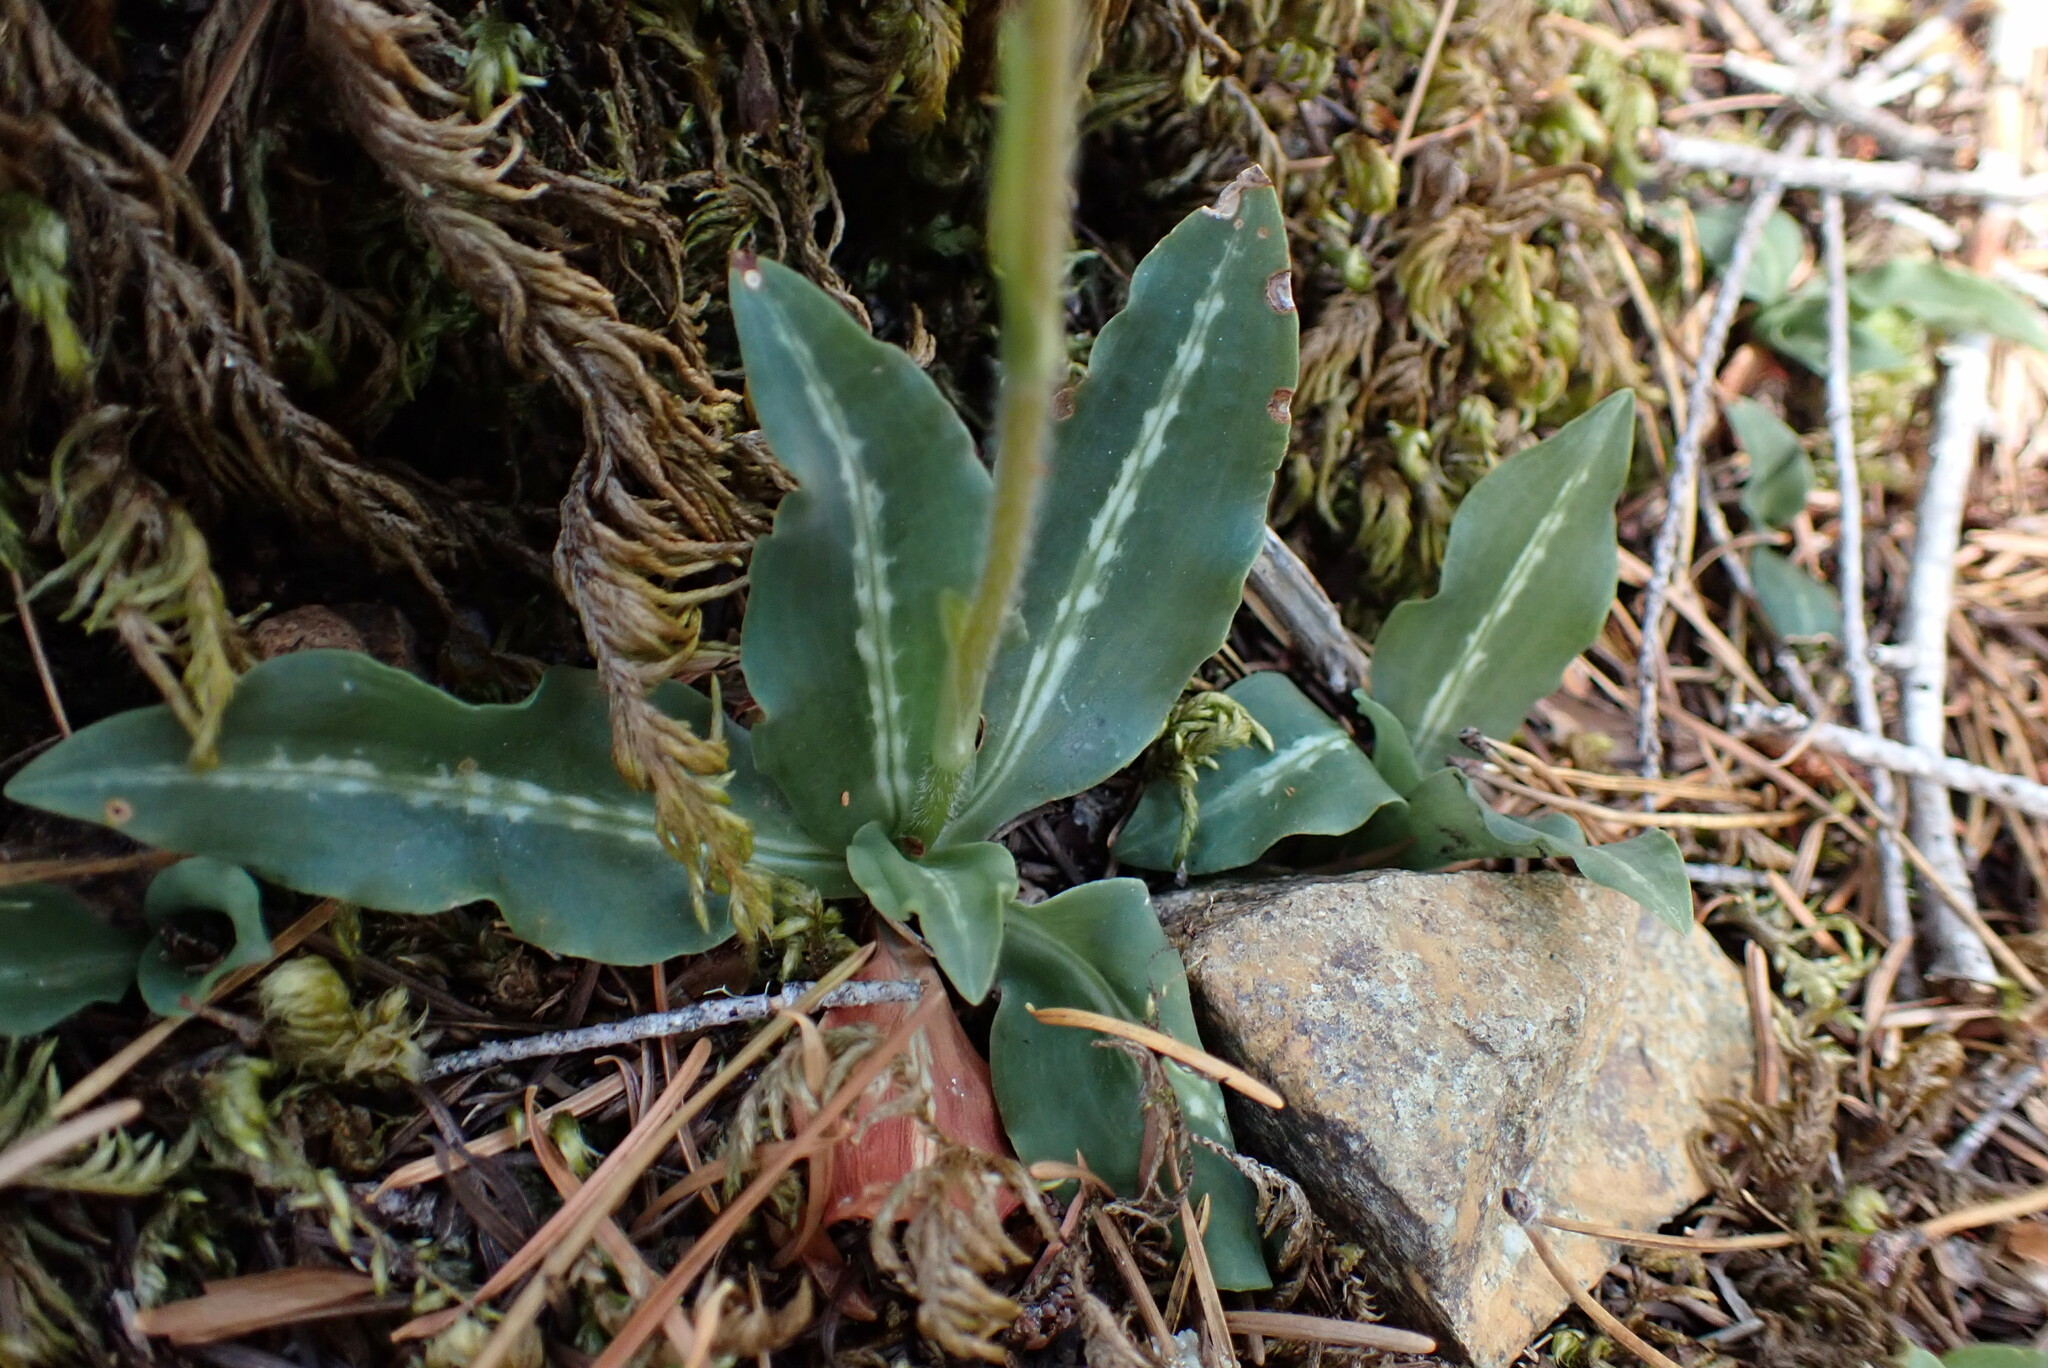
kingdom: Plantae
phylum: Tracheophyta
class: Liliopsida
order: Asparagales
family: Orchidaceae
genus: Goodyera
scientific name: Goodyera oblongifolia
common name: Giant rattlesnake-plantain
